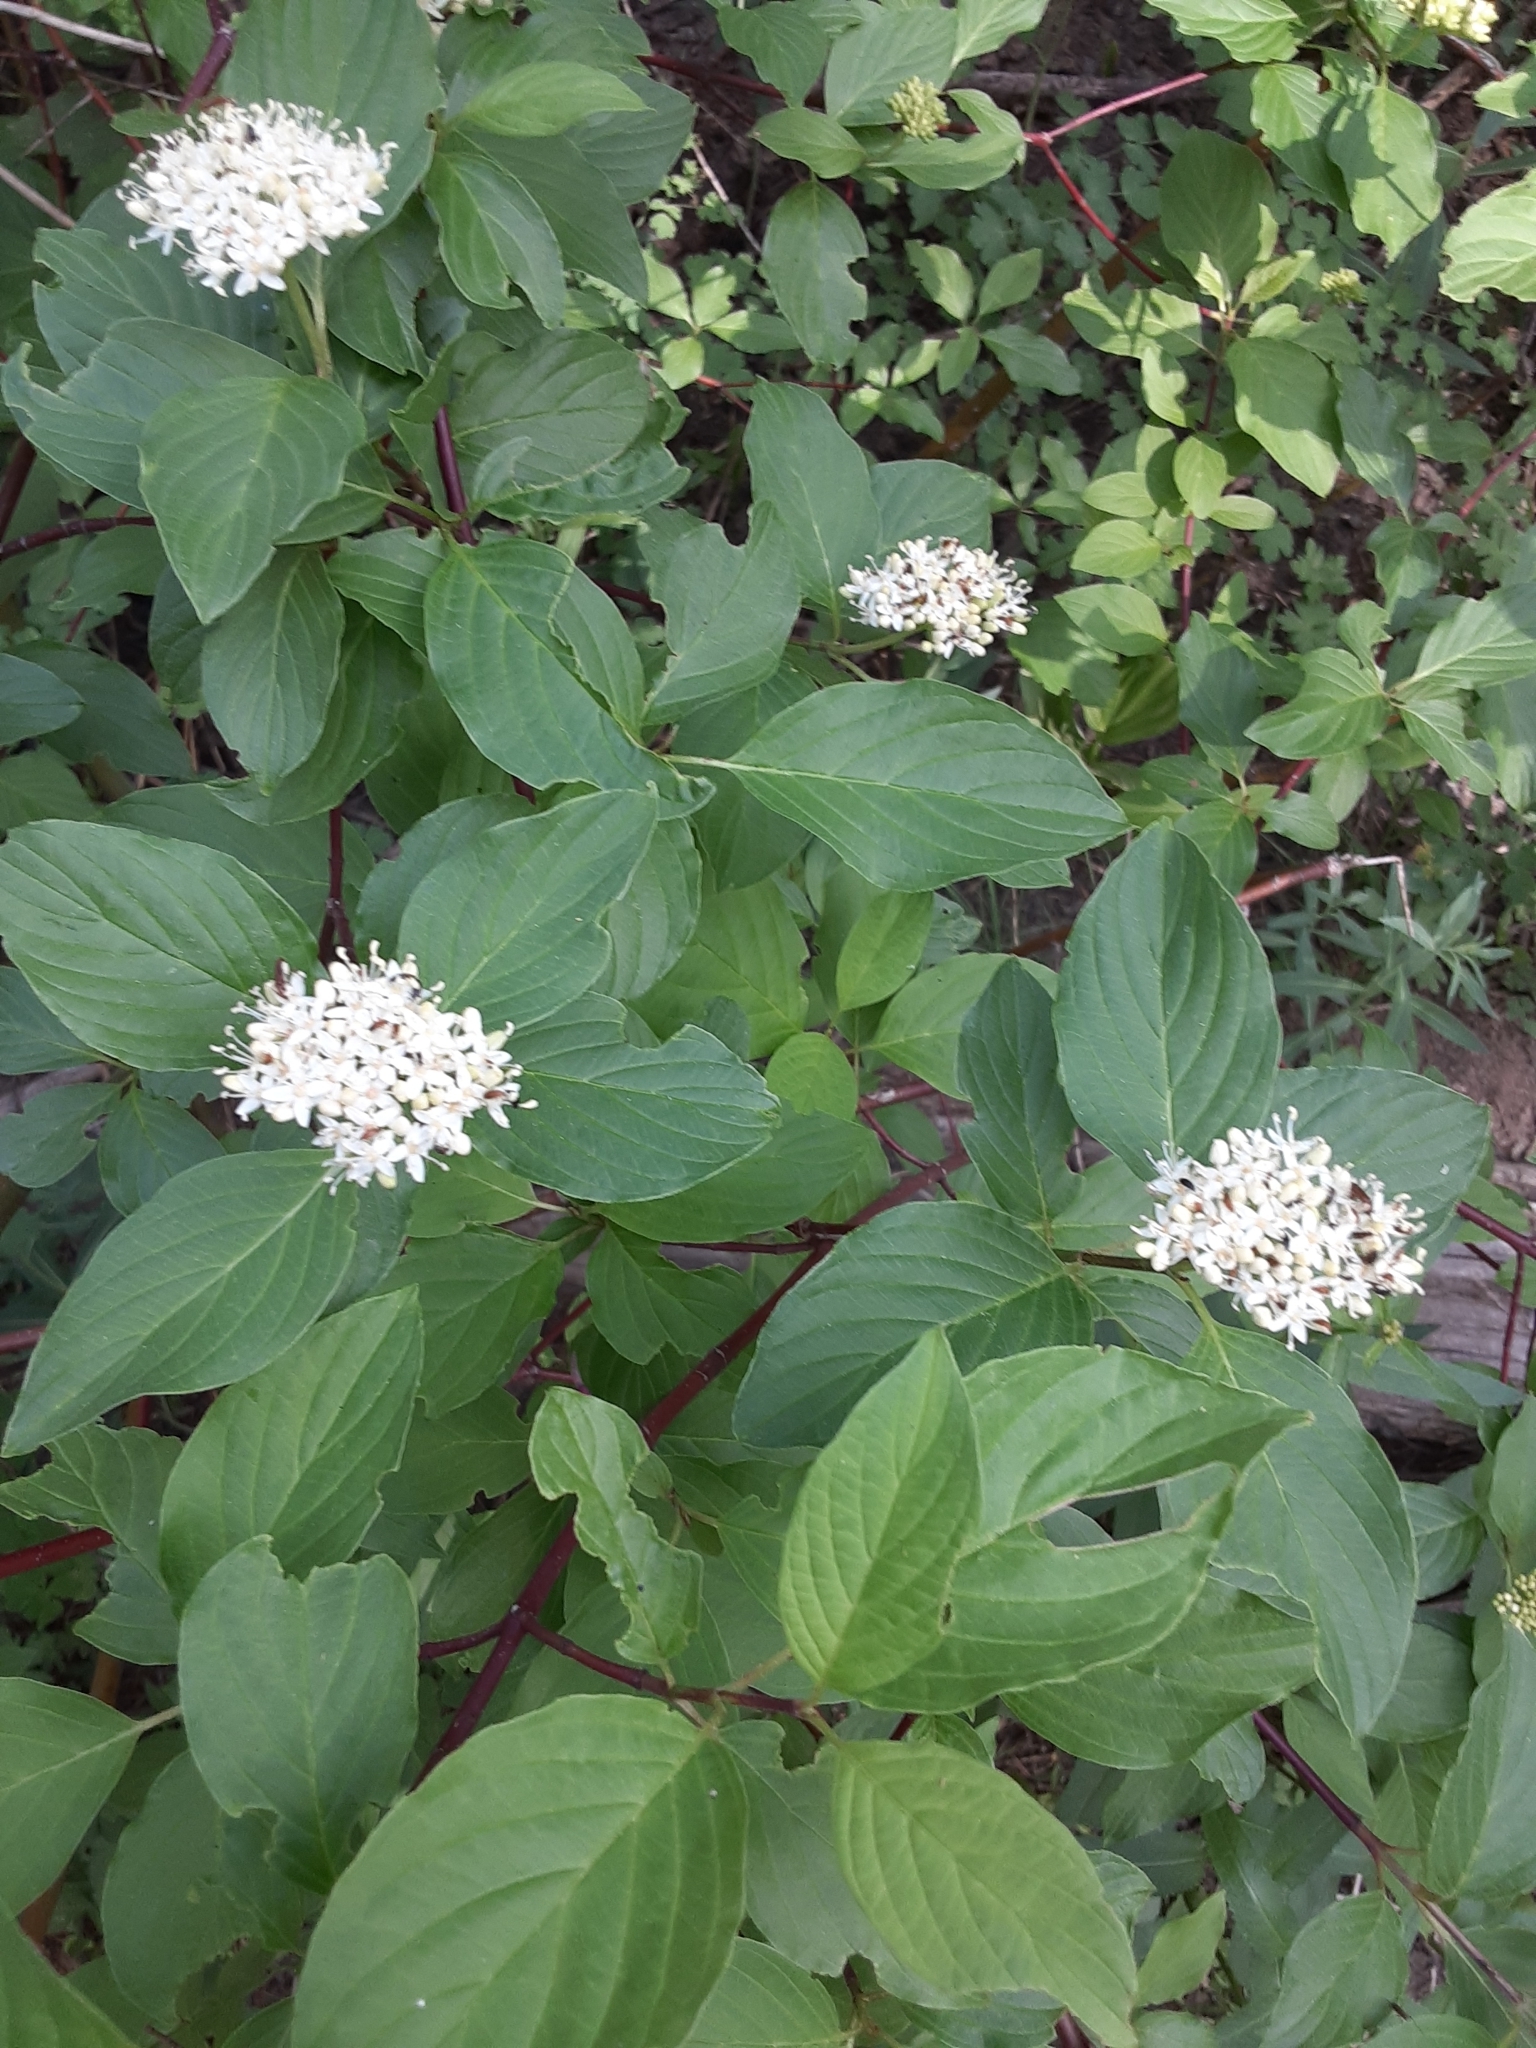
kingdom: Plantae
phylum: Tracheophyta
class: Magnoliopsida
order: Cornales
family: Cornaceae
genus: Cornus
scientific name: Cornus sericea
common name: Red-osier dogwood
